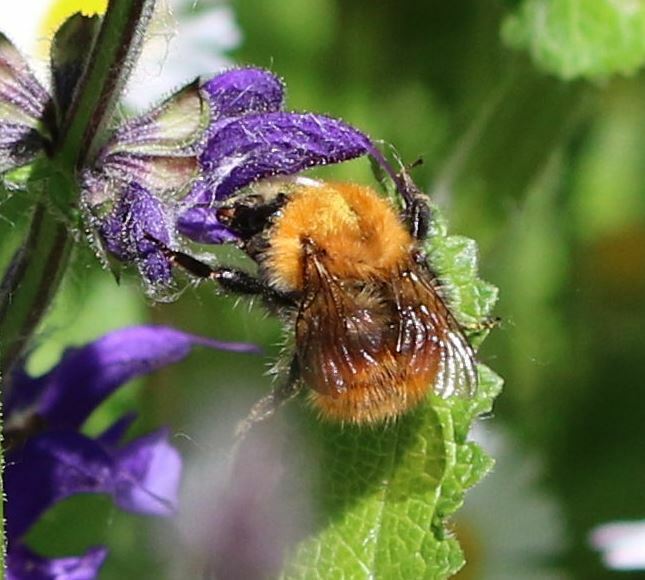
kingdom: Animalia
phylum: Arthropoda
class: Insecta
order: Hymenoptera
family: Apidae
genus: Bombus
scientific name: Bombus pascuorum
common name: Common carder bee
